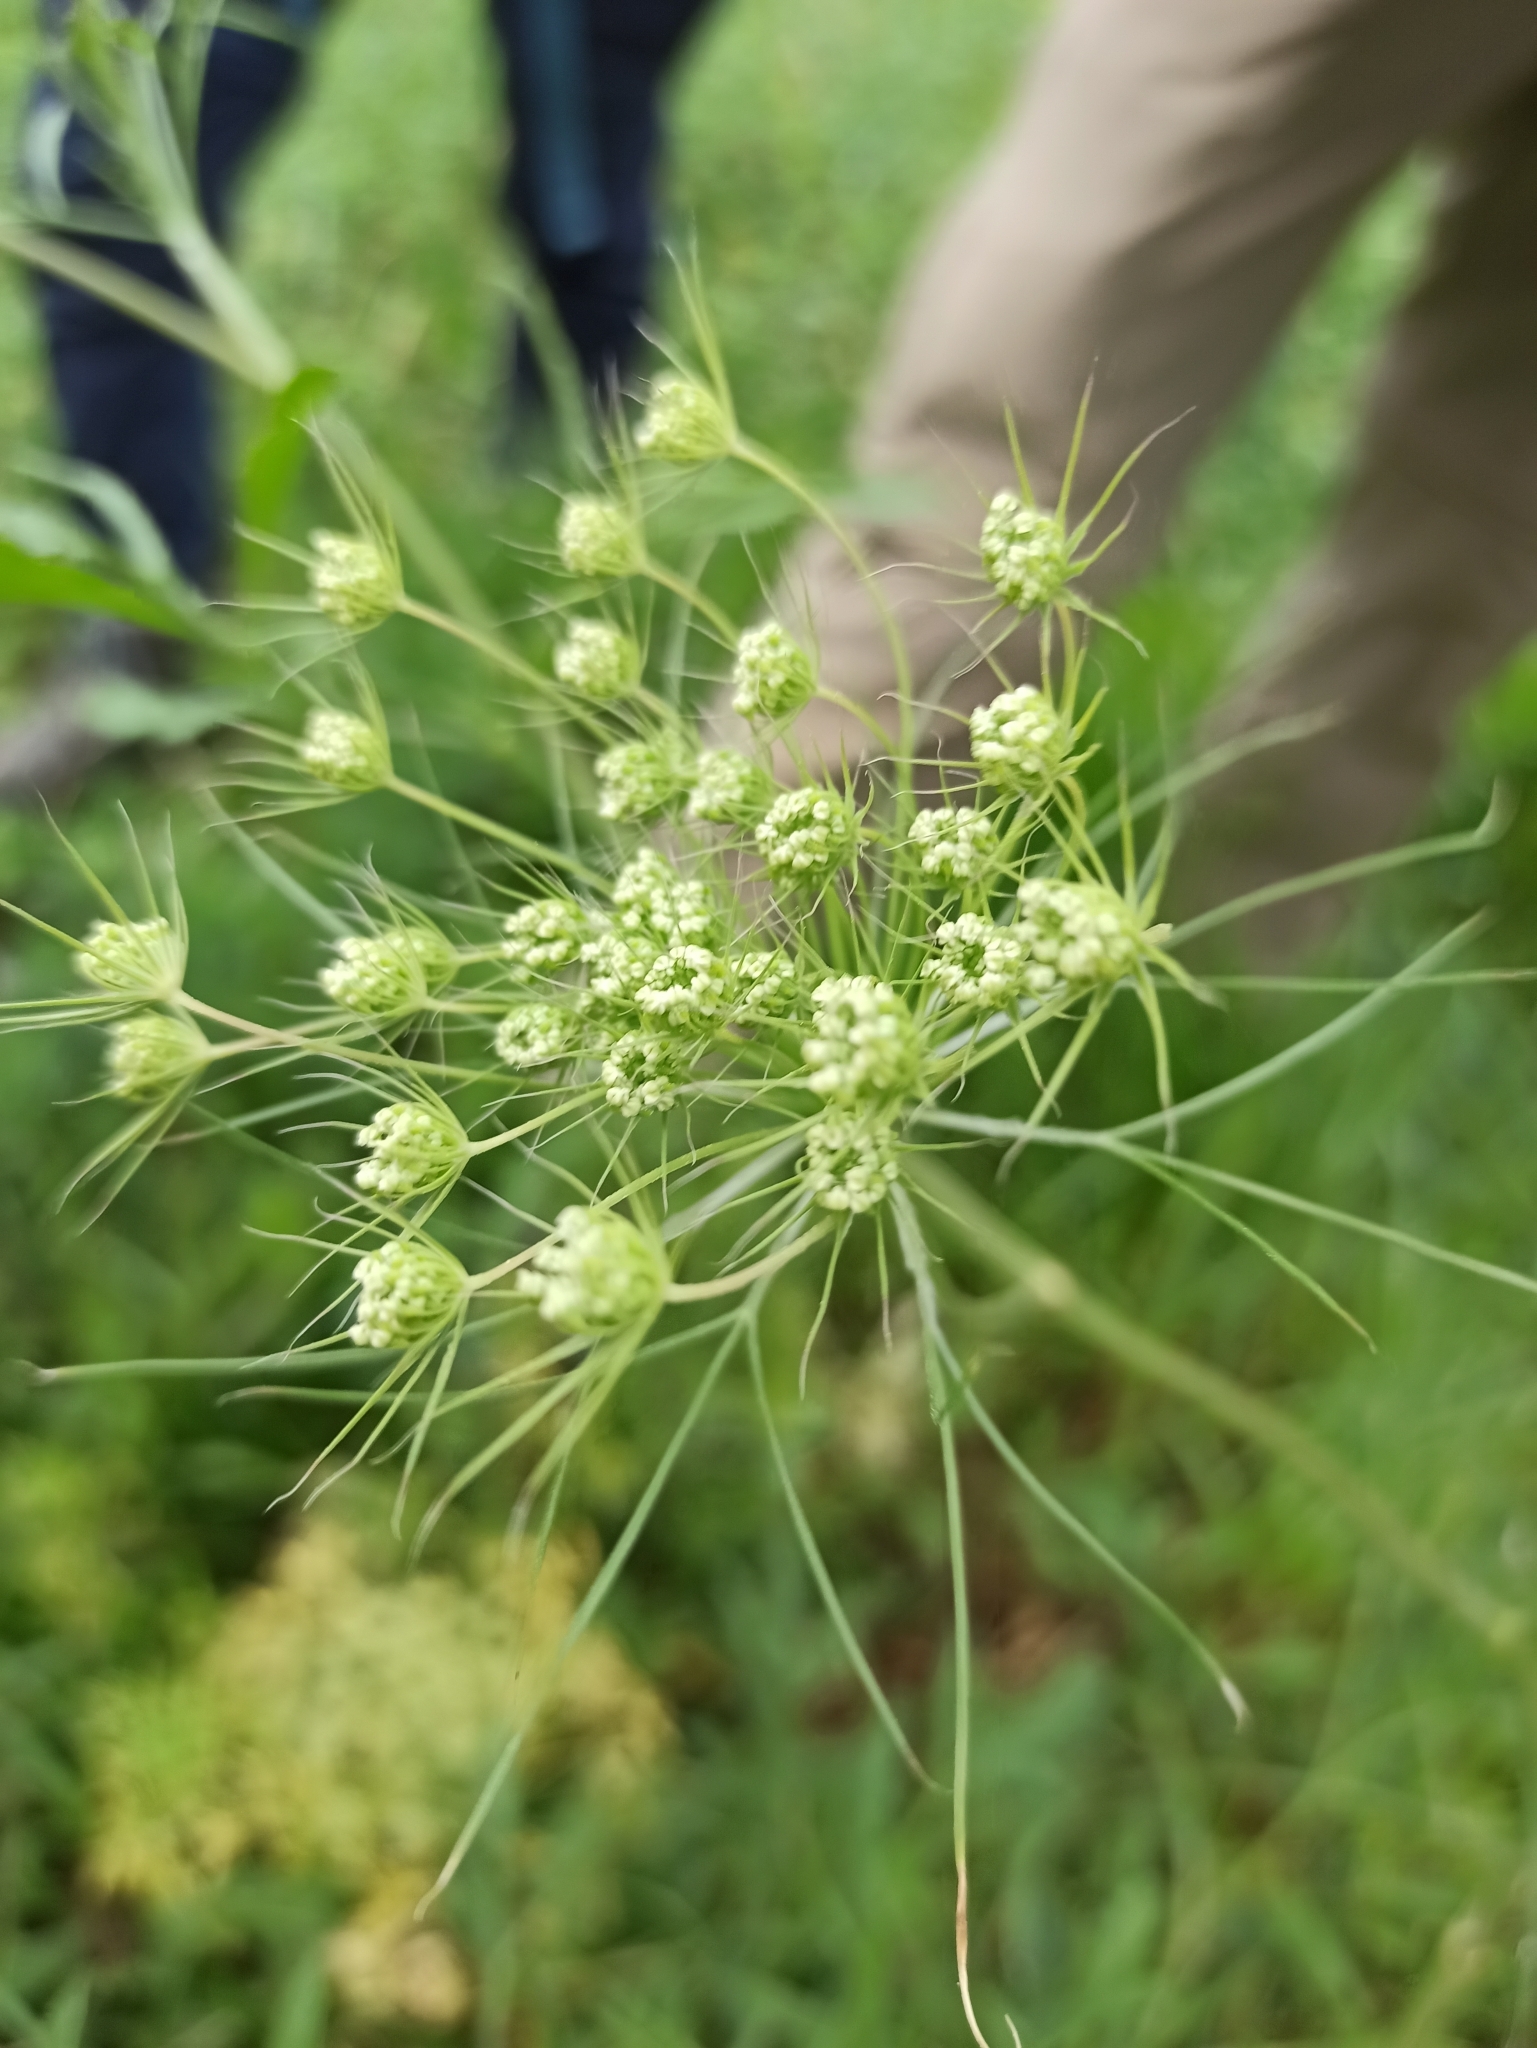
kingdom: Plantae
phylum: Tracheophyta
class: Magnoliopsida
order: Apiales
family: Apiaceae
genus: Ammi
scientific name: Ammi majus
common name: Bullwort
